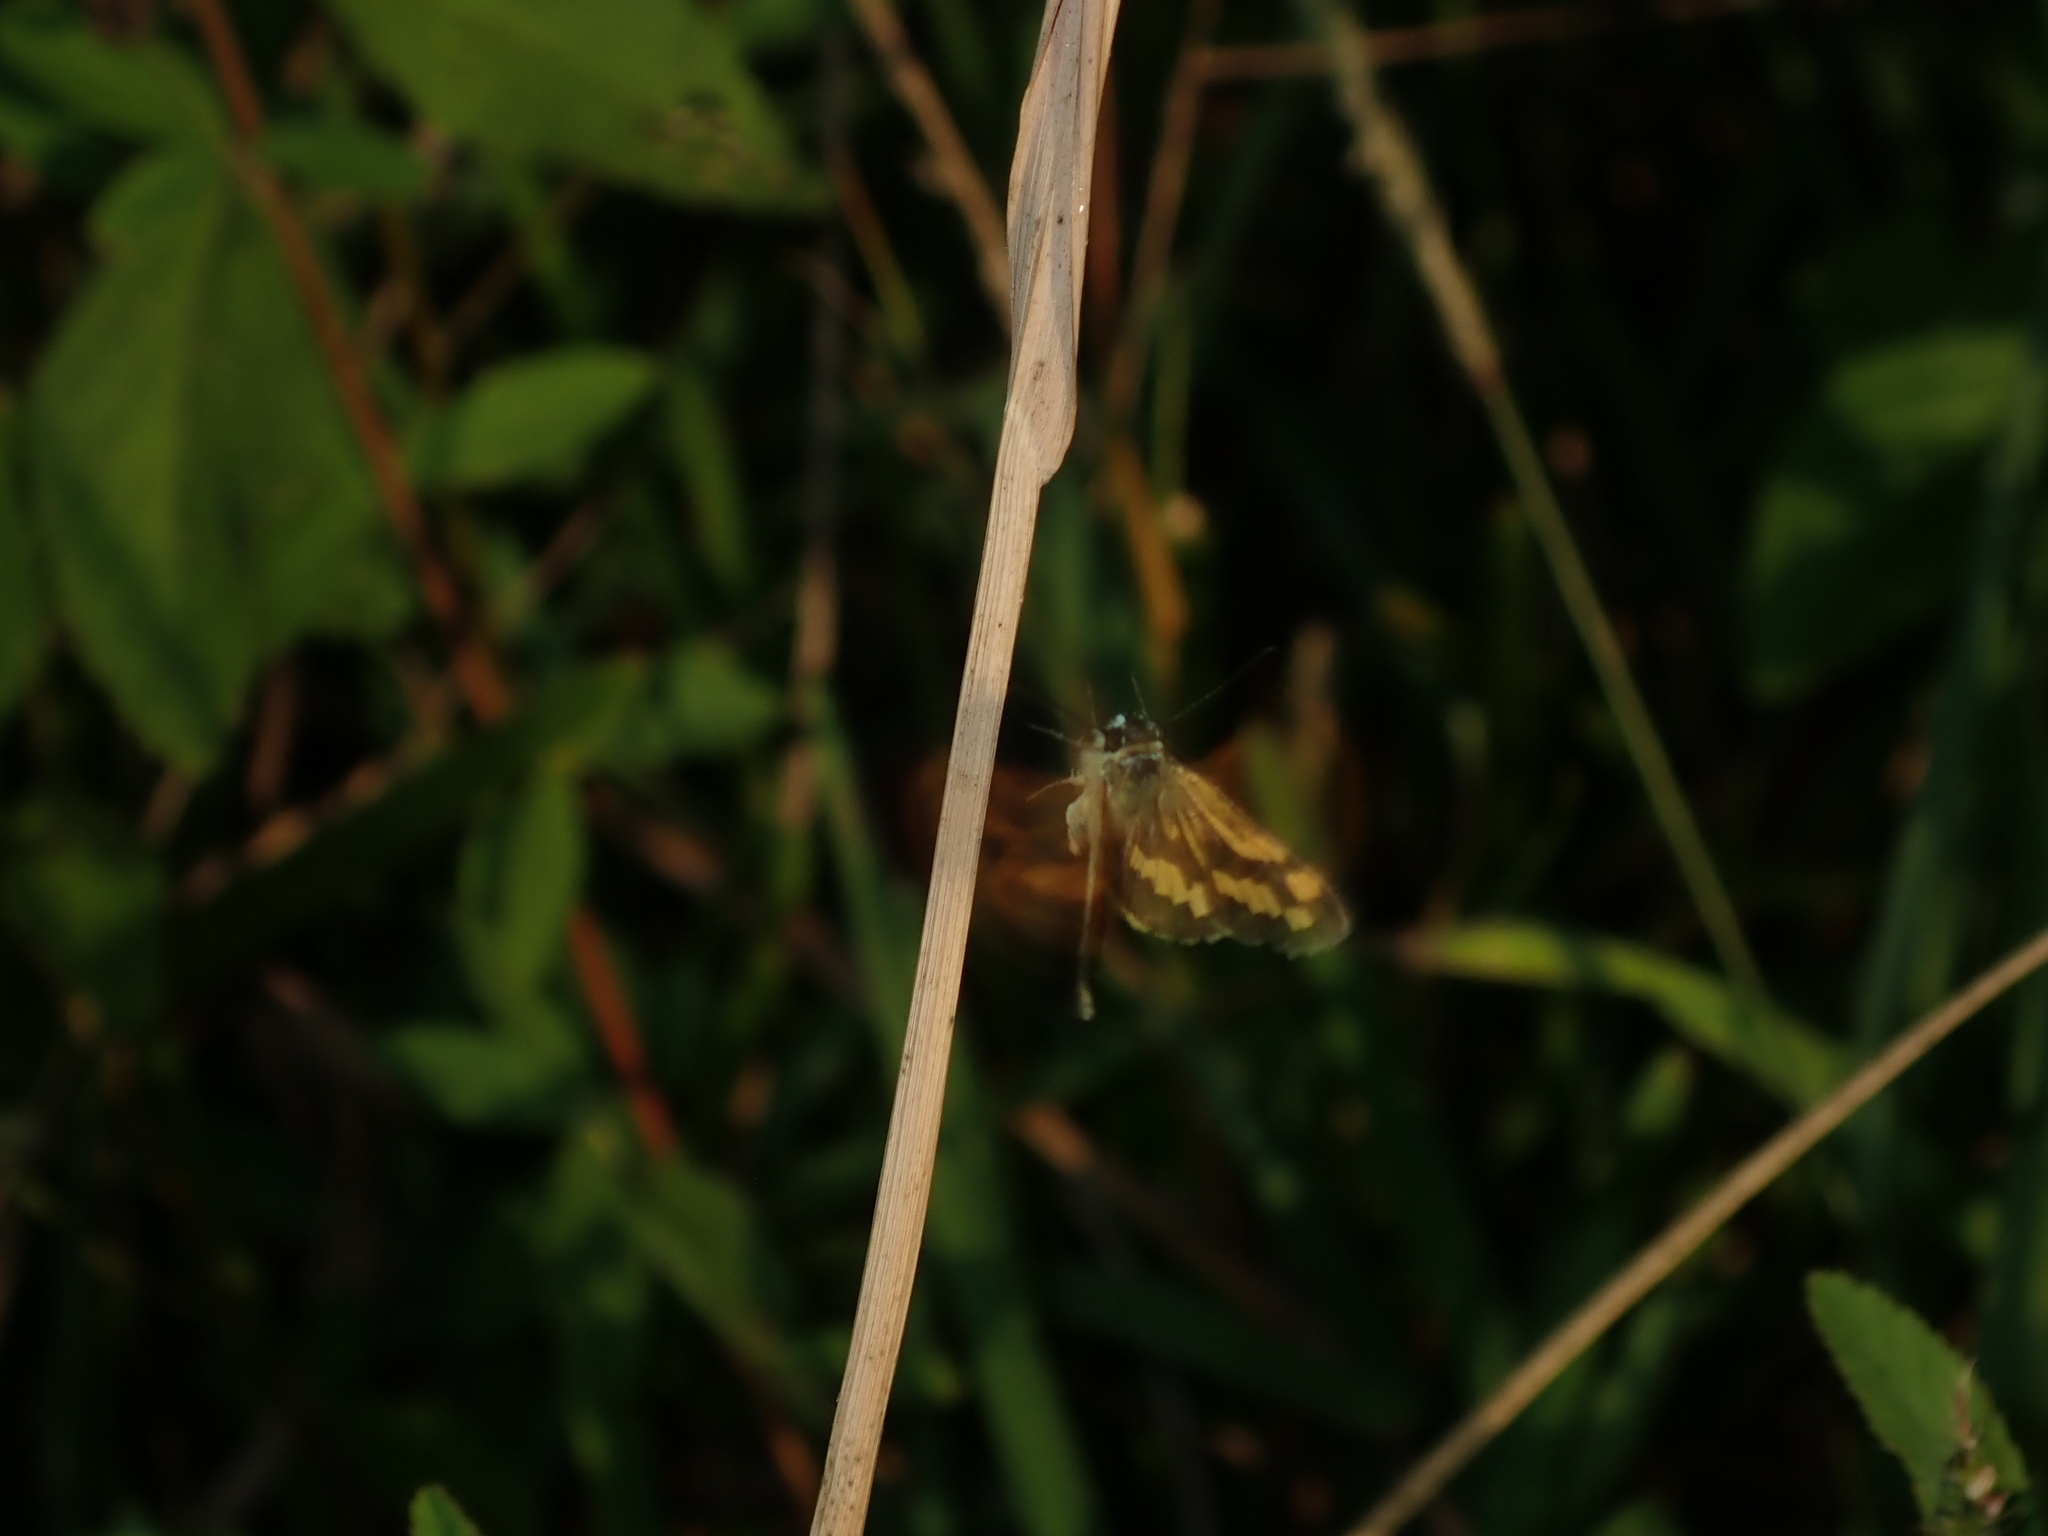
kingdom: Animalia
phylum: Arthropoda
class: Insecta
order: Lepidoptera
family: Hesperiidae
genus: Ocybadistes
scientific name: Ocybadistes walkeri
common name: Yellow-banded dart
